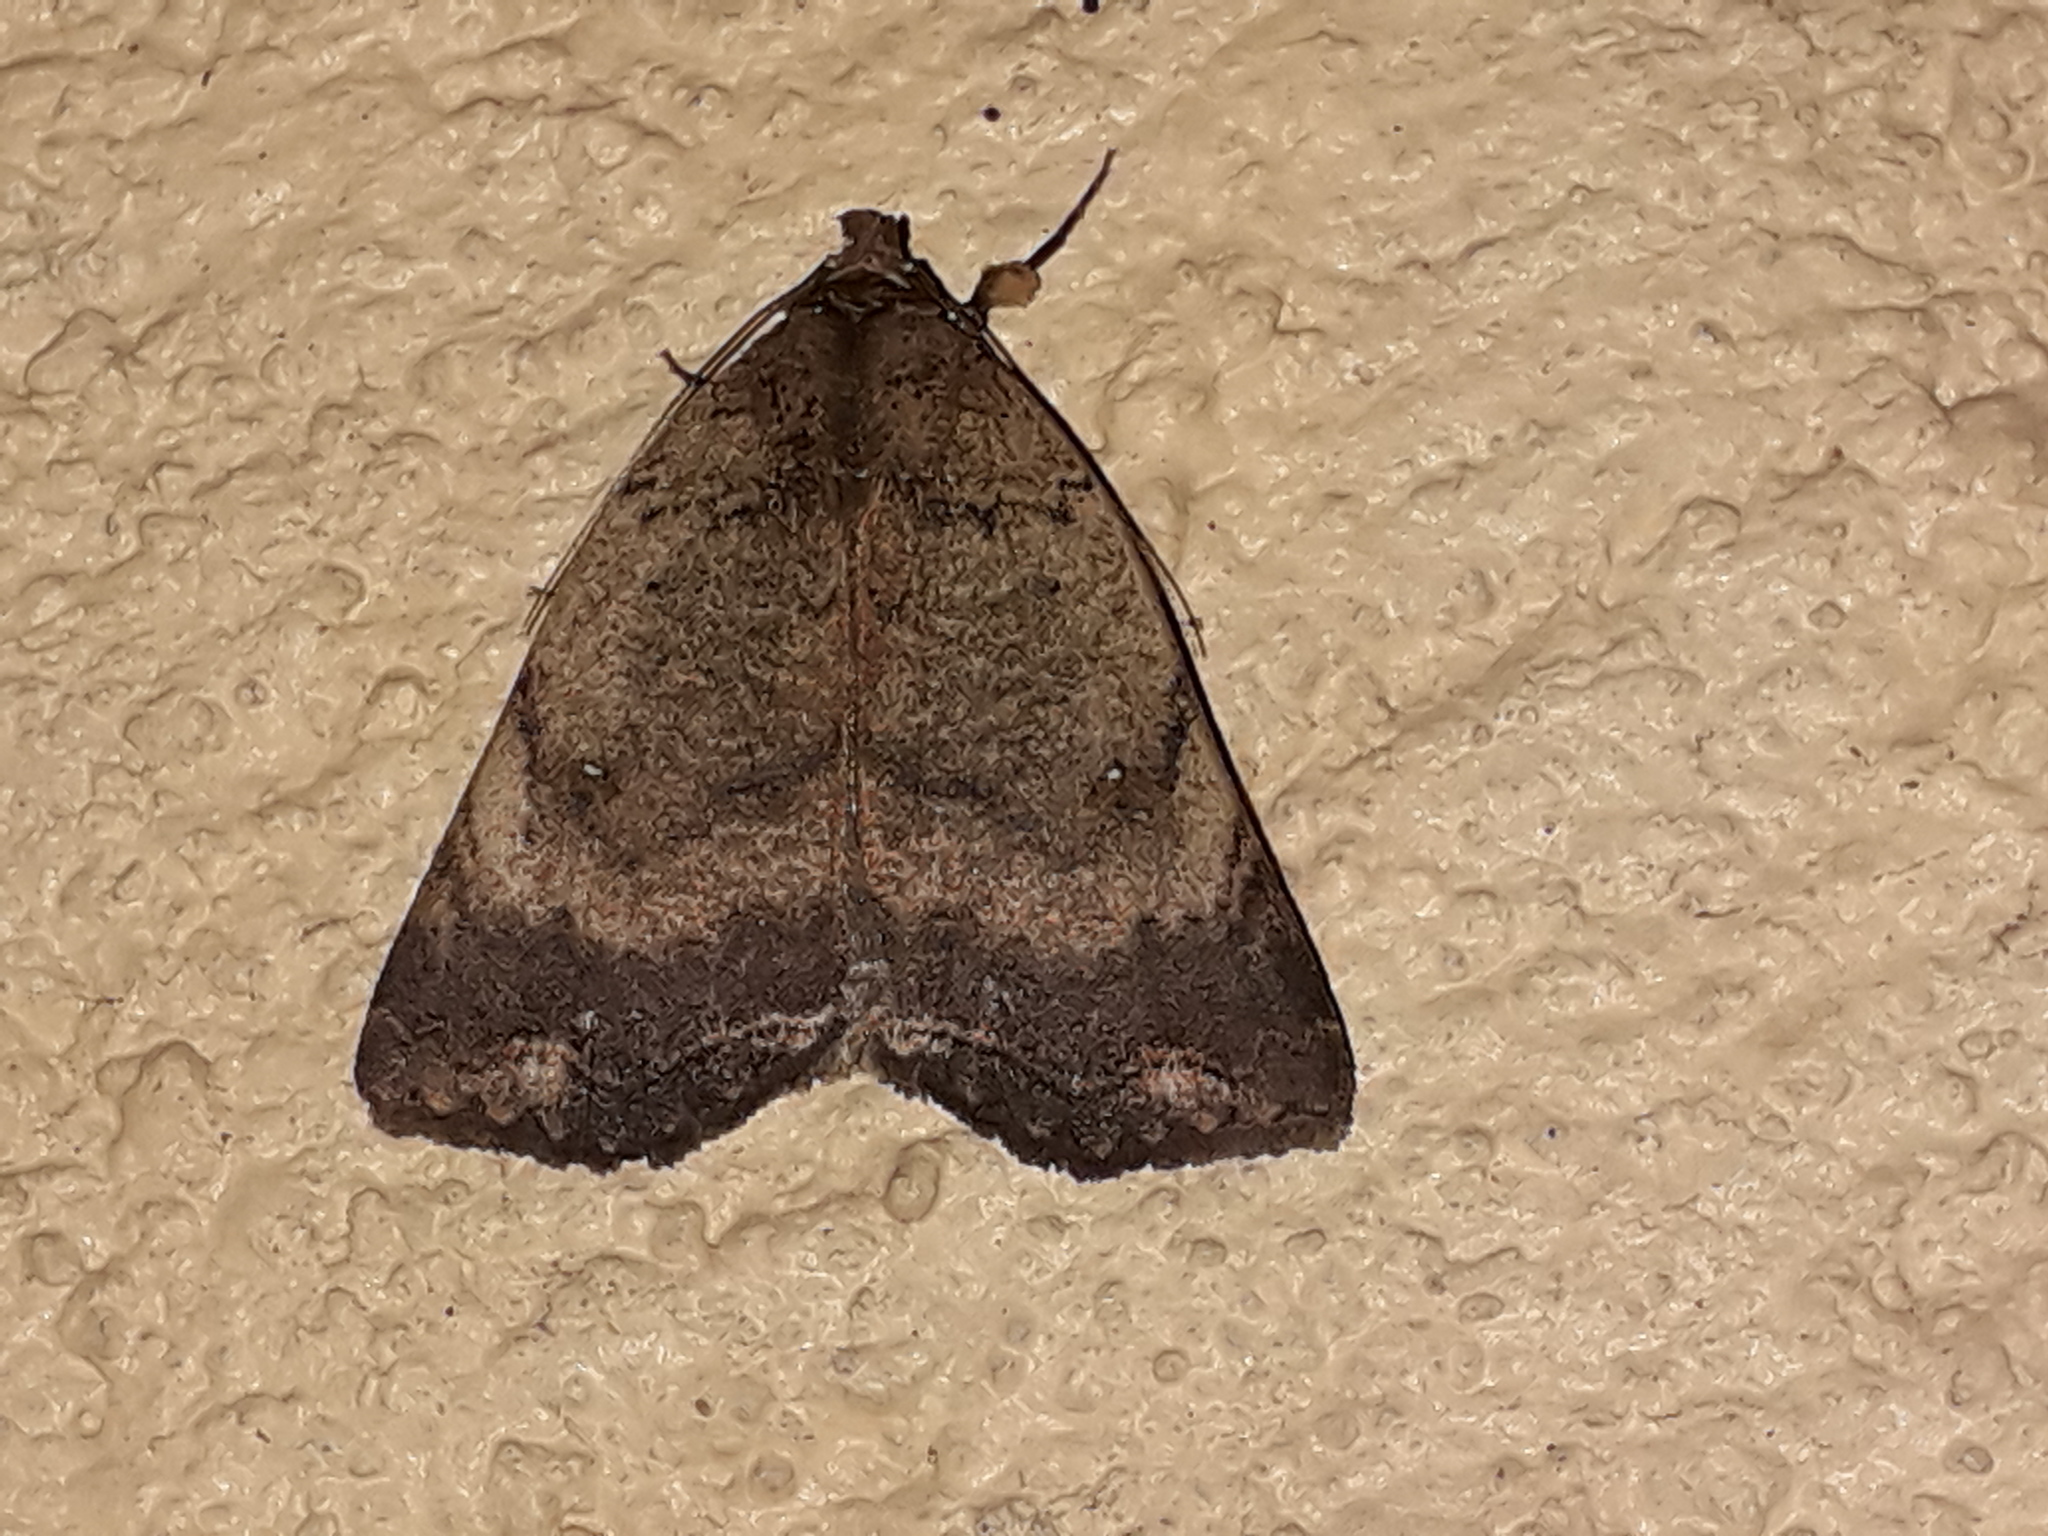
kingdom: Animalia
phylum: Arthropoda
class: Insecta
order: Lepidoptera
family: Erebidae
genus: Pyrgion
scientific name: Pyrgion repanda
